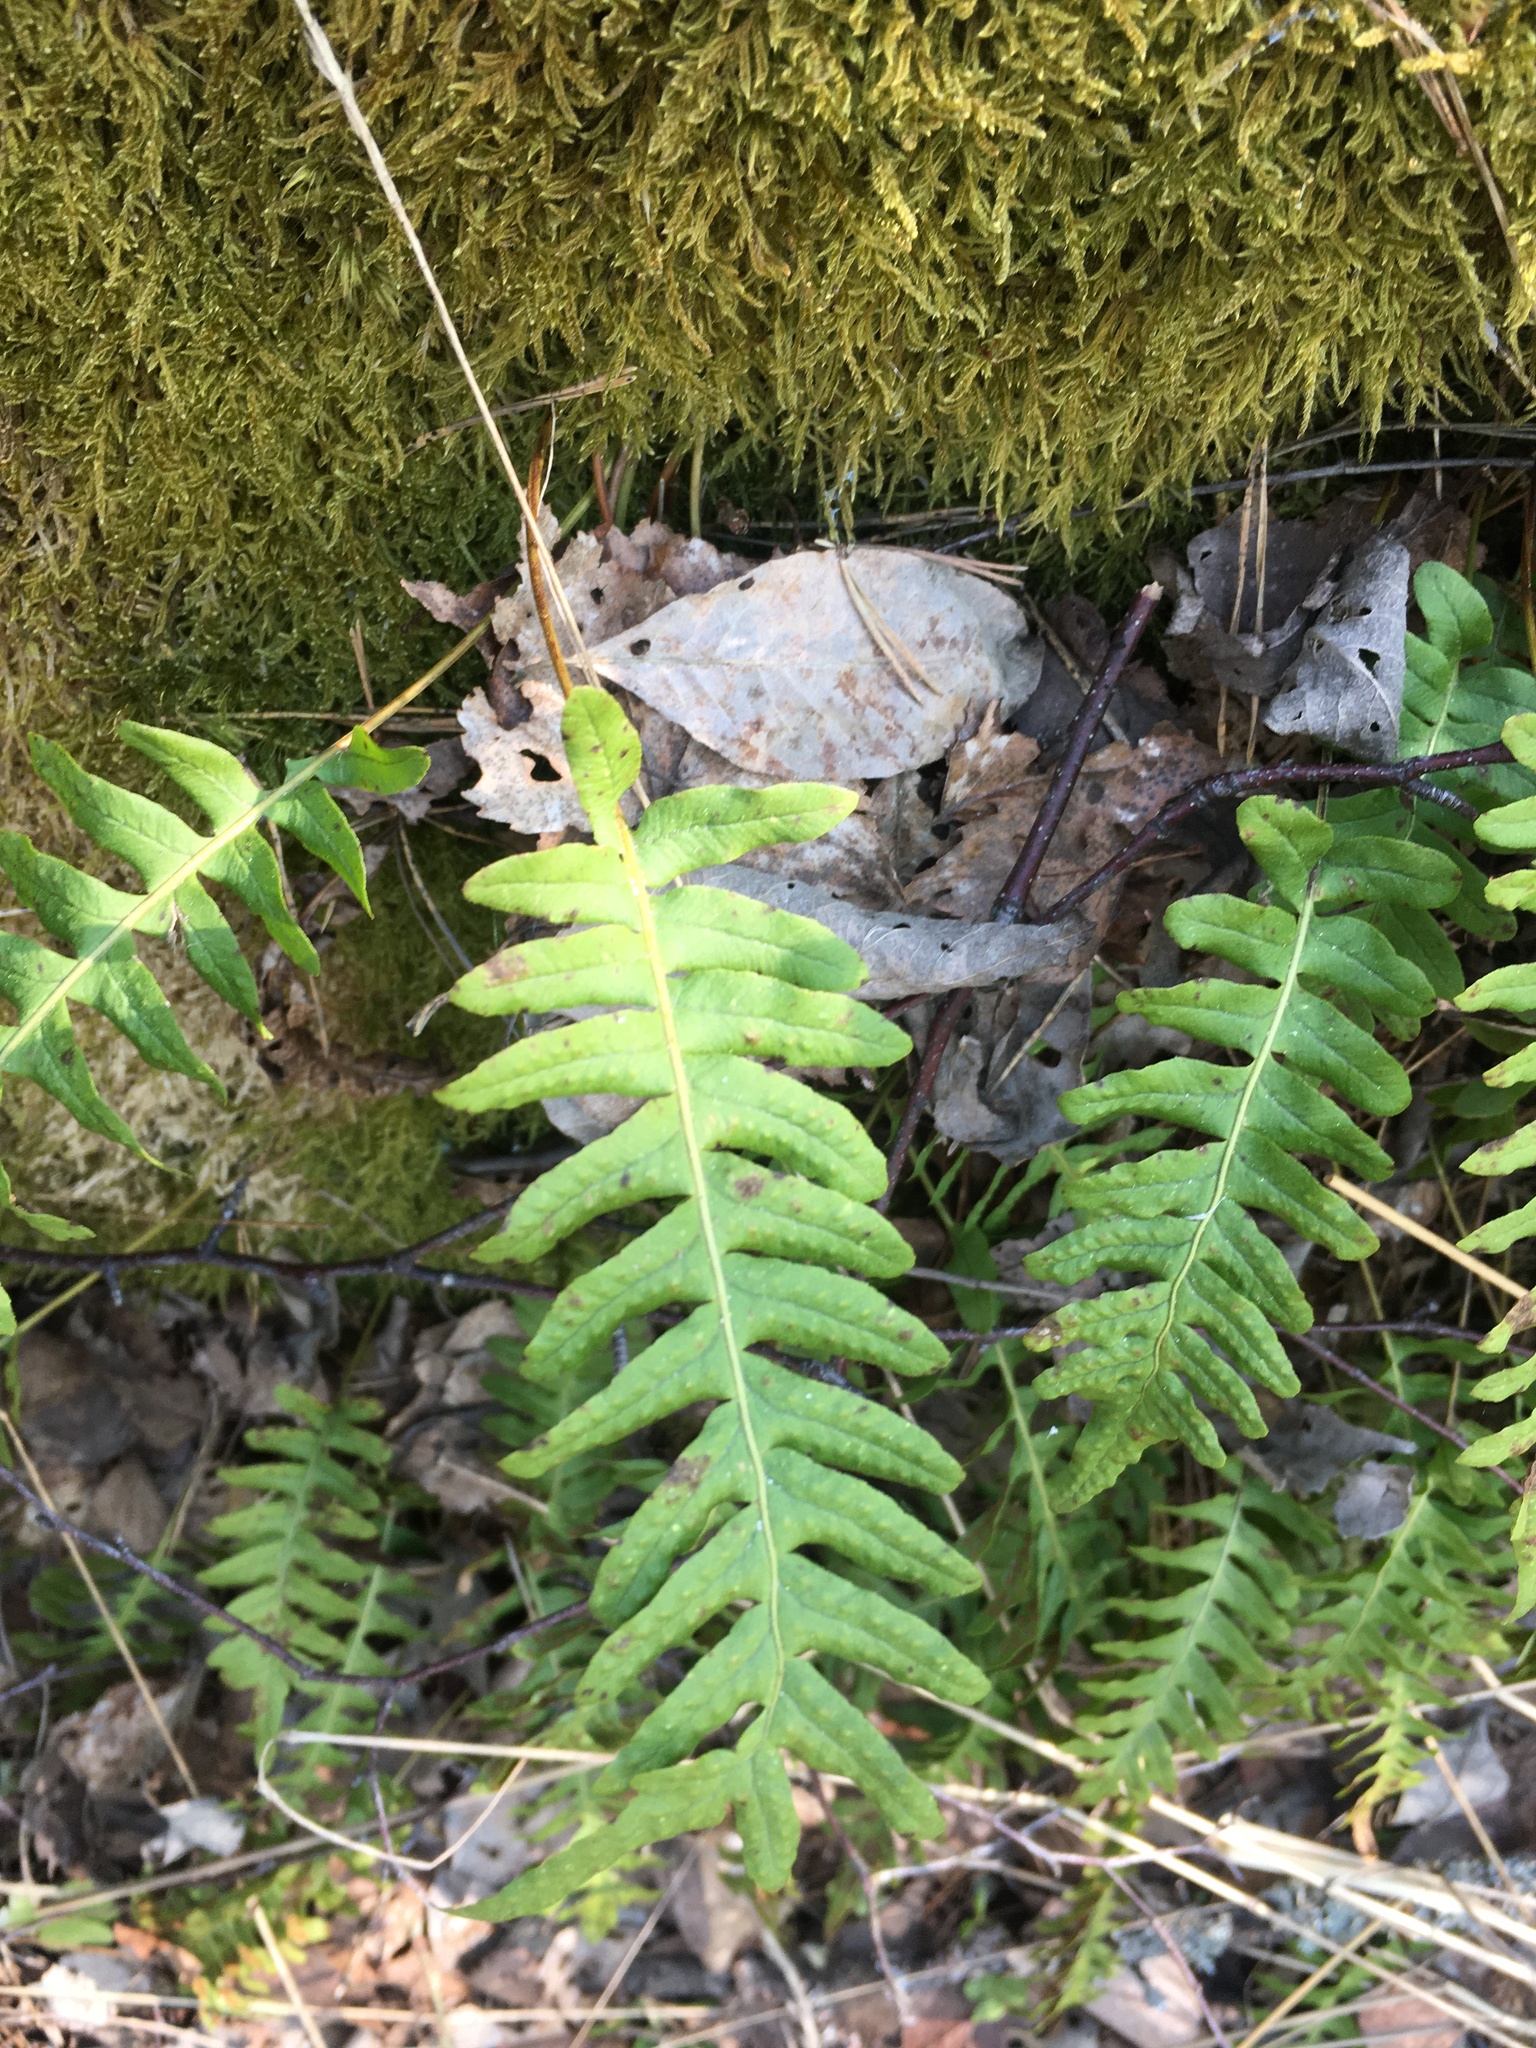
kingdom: Plantae
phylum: Tracheophyta
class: Polypodiopsida
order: Polypodiales
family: Polypodiaceae
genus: Polypodium
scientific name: Polypodium vulgare
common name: Common polypody
